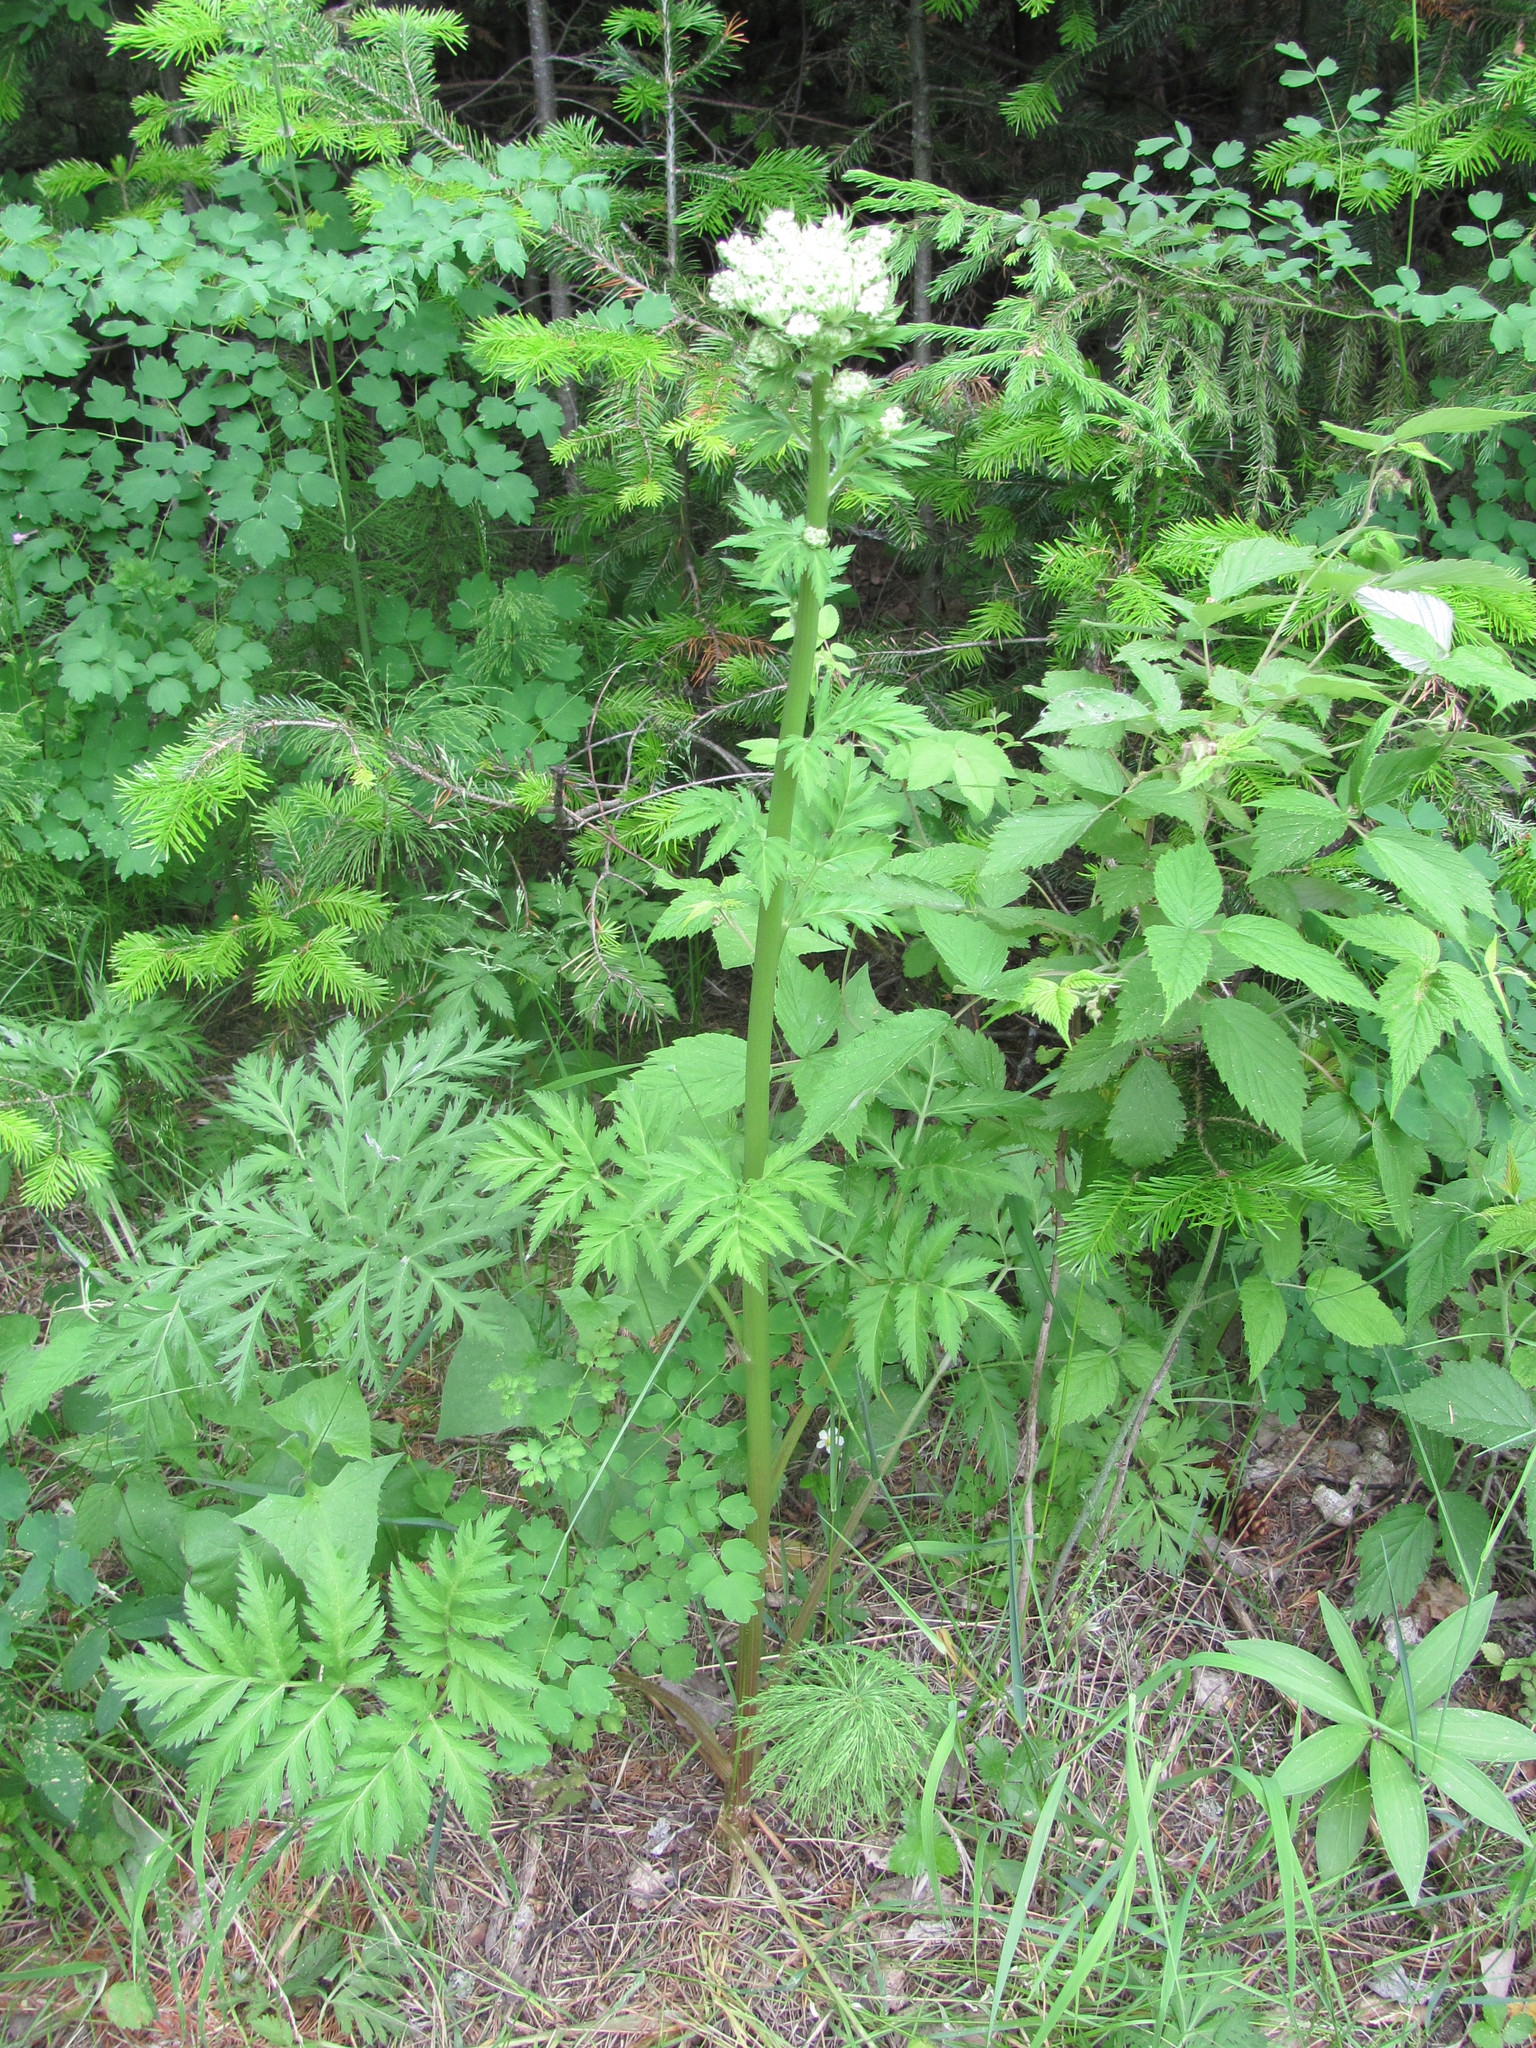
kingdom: Plantae
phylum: Tracheophyta
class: Magnoliopsida
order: Apiales
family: Apiaceae
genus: Pleurospermum
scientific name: Pleurospermum uralense
